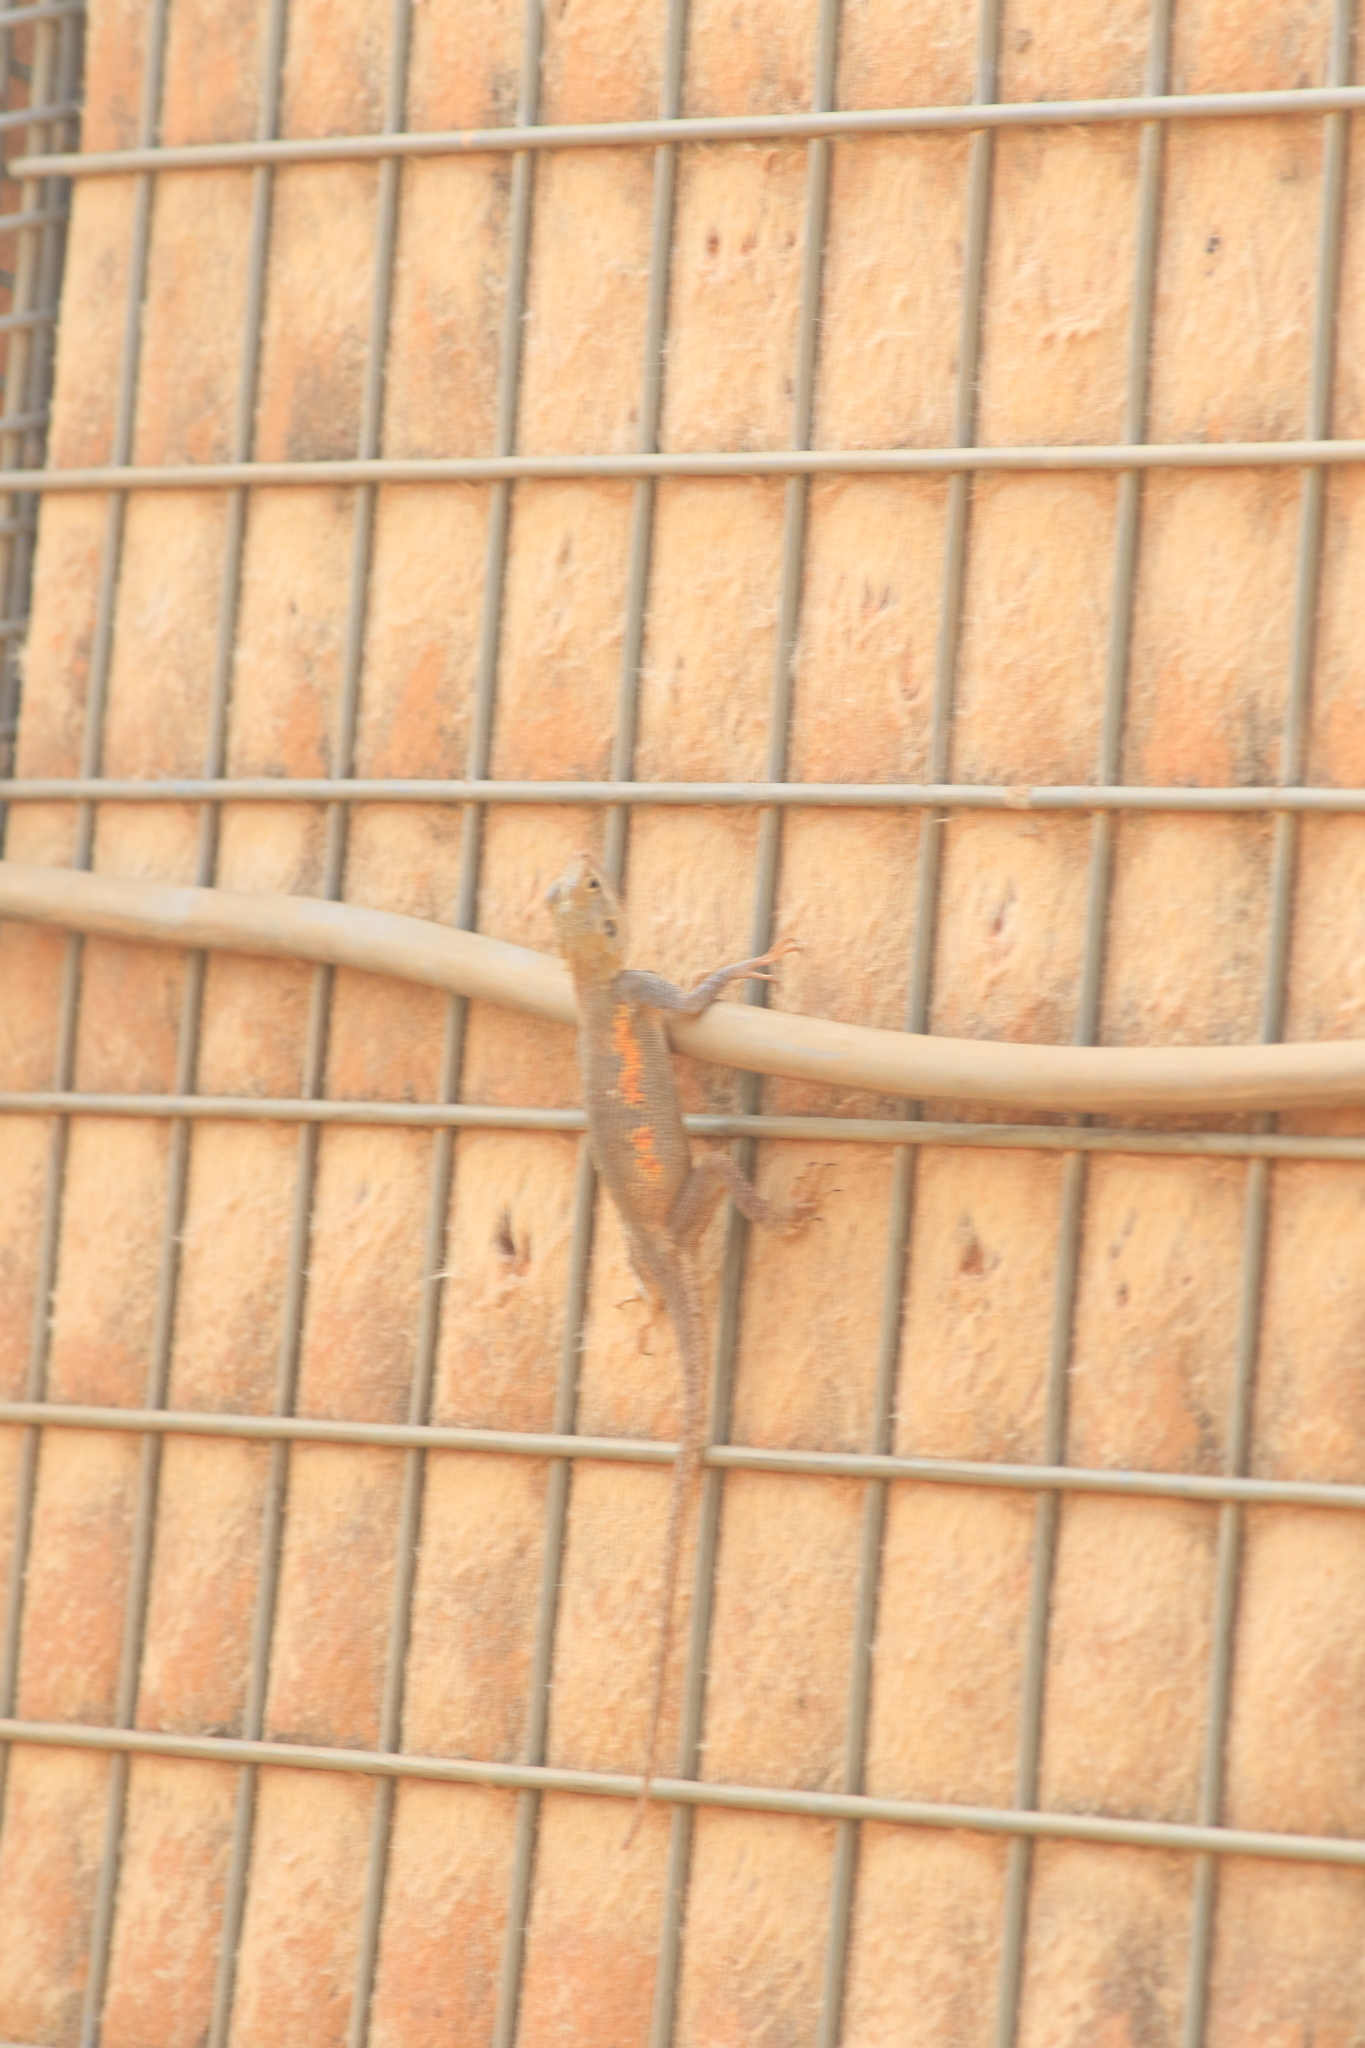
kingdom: Animalia
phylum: Chordata
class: Squamata
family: Agamidae
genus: Agama
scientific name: Agama paragama
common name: False agama
